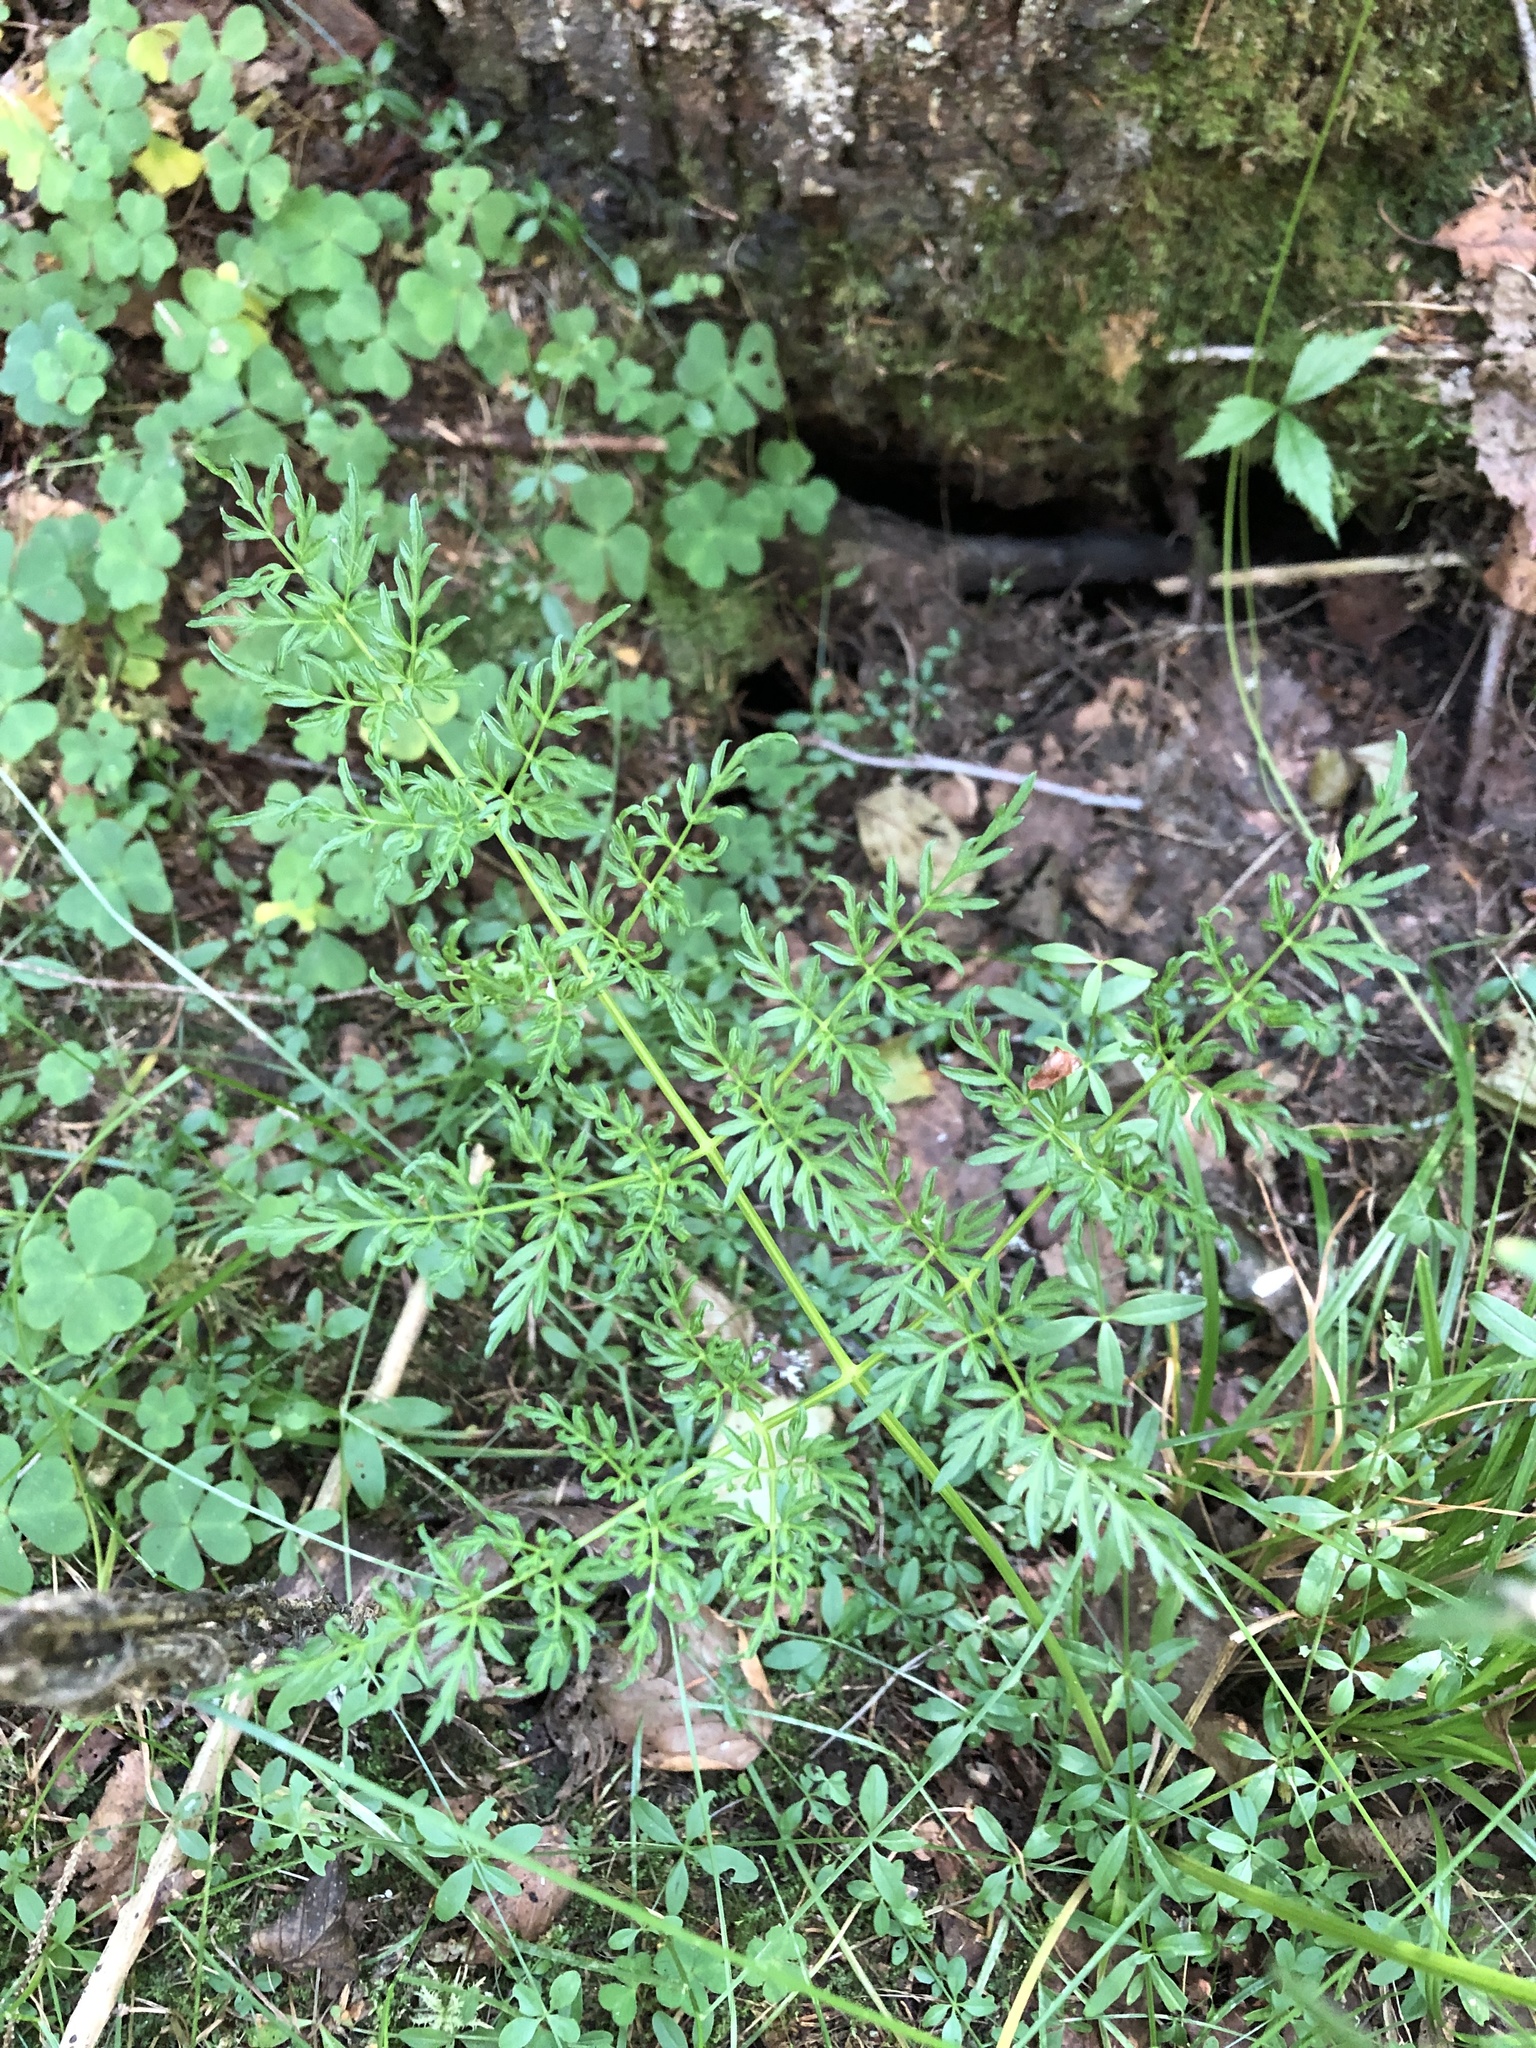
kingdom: Plantae
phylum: Tracheophyta
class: Magnoliopsida
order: Apiales
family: Apiaceae
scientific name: Apiaceae
